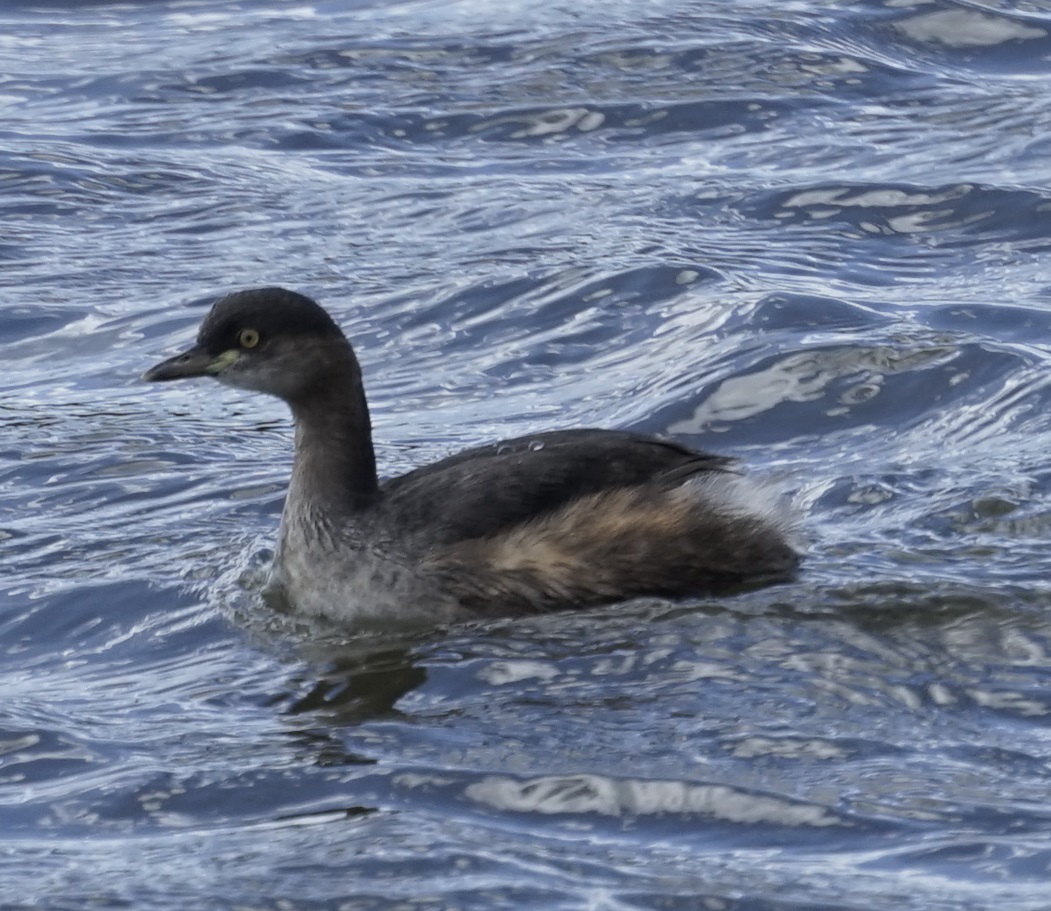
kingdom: Animalia
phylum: Chordata
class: Aves
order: Podicipediformes
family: Podicipedidae
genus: Tachybaptus
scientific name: Tachybaptus novaehollandiae
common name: Australasian grebe
